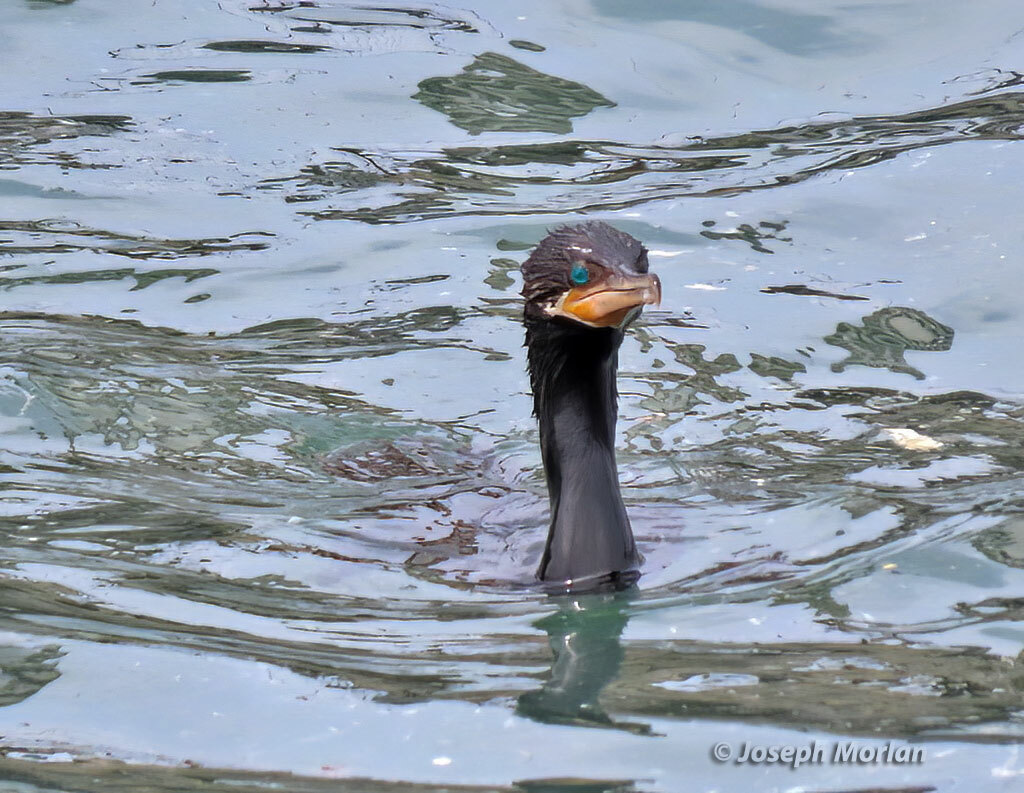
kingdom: Animalia
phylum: Chordata
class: Aves
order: Suliformes
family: Phalacrocoracidae
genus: Phalacrocorax
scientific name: Phalacrocorax brasilianus
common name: Neotropic cormorant
